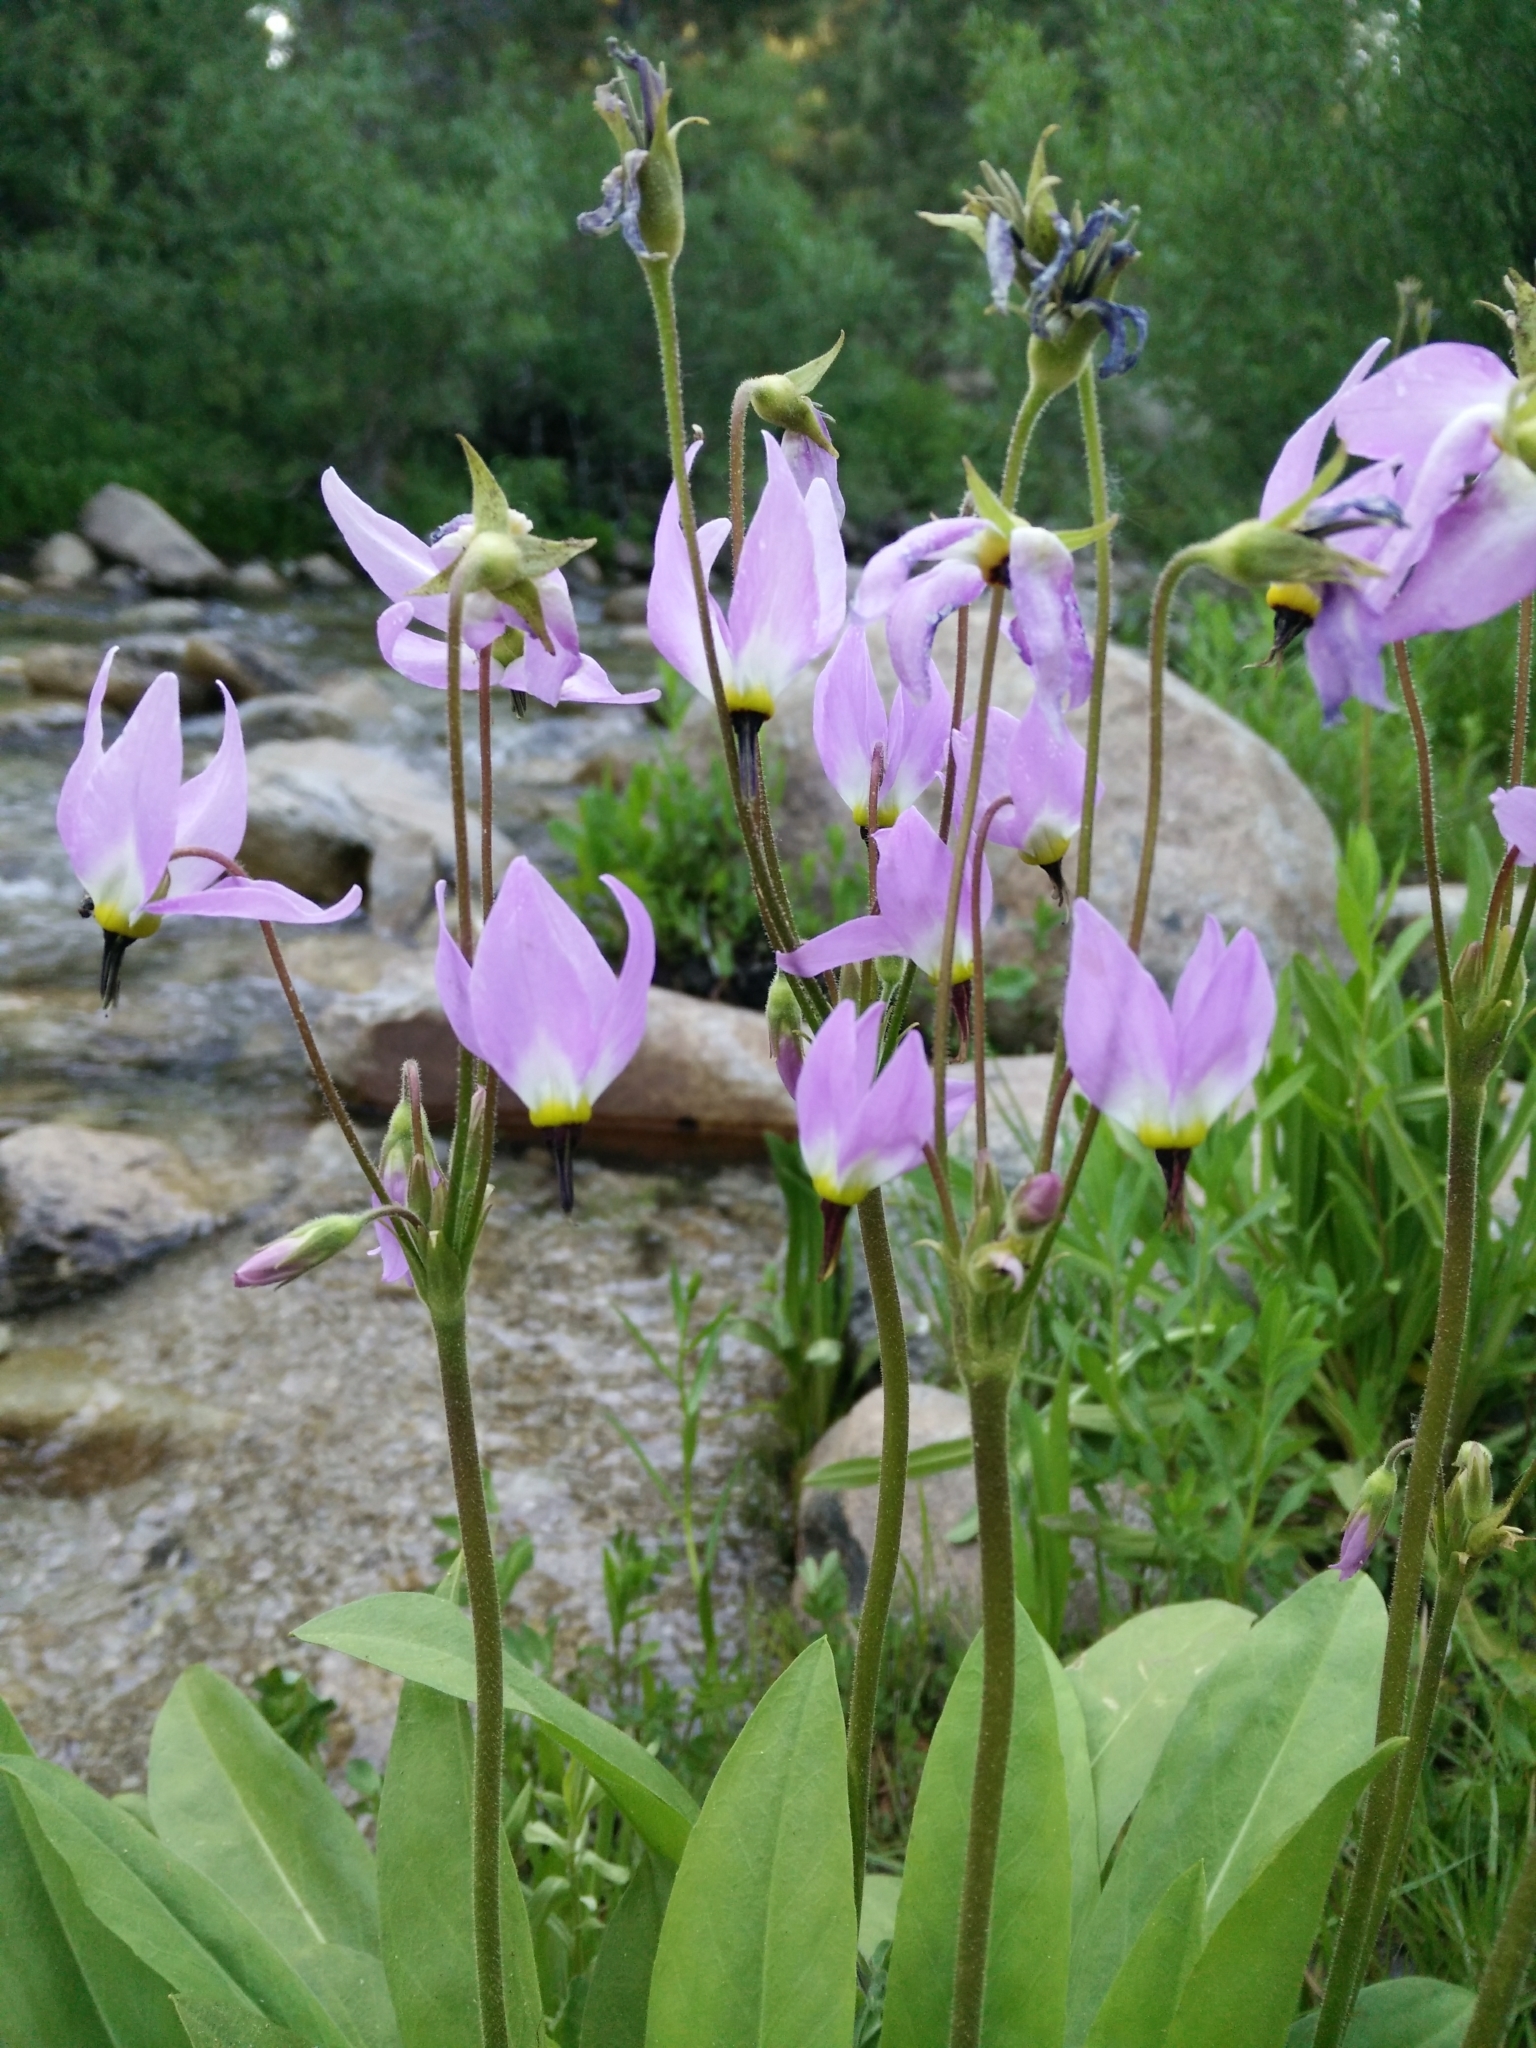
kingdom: Plantae
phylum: Tracheophyta
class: Magnoliopsida
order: Ericales
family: Primulaceae
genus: Dodecatheon
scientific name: Dodecatheon jeffreyanum
